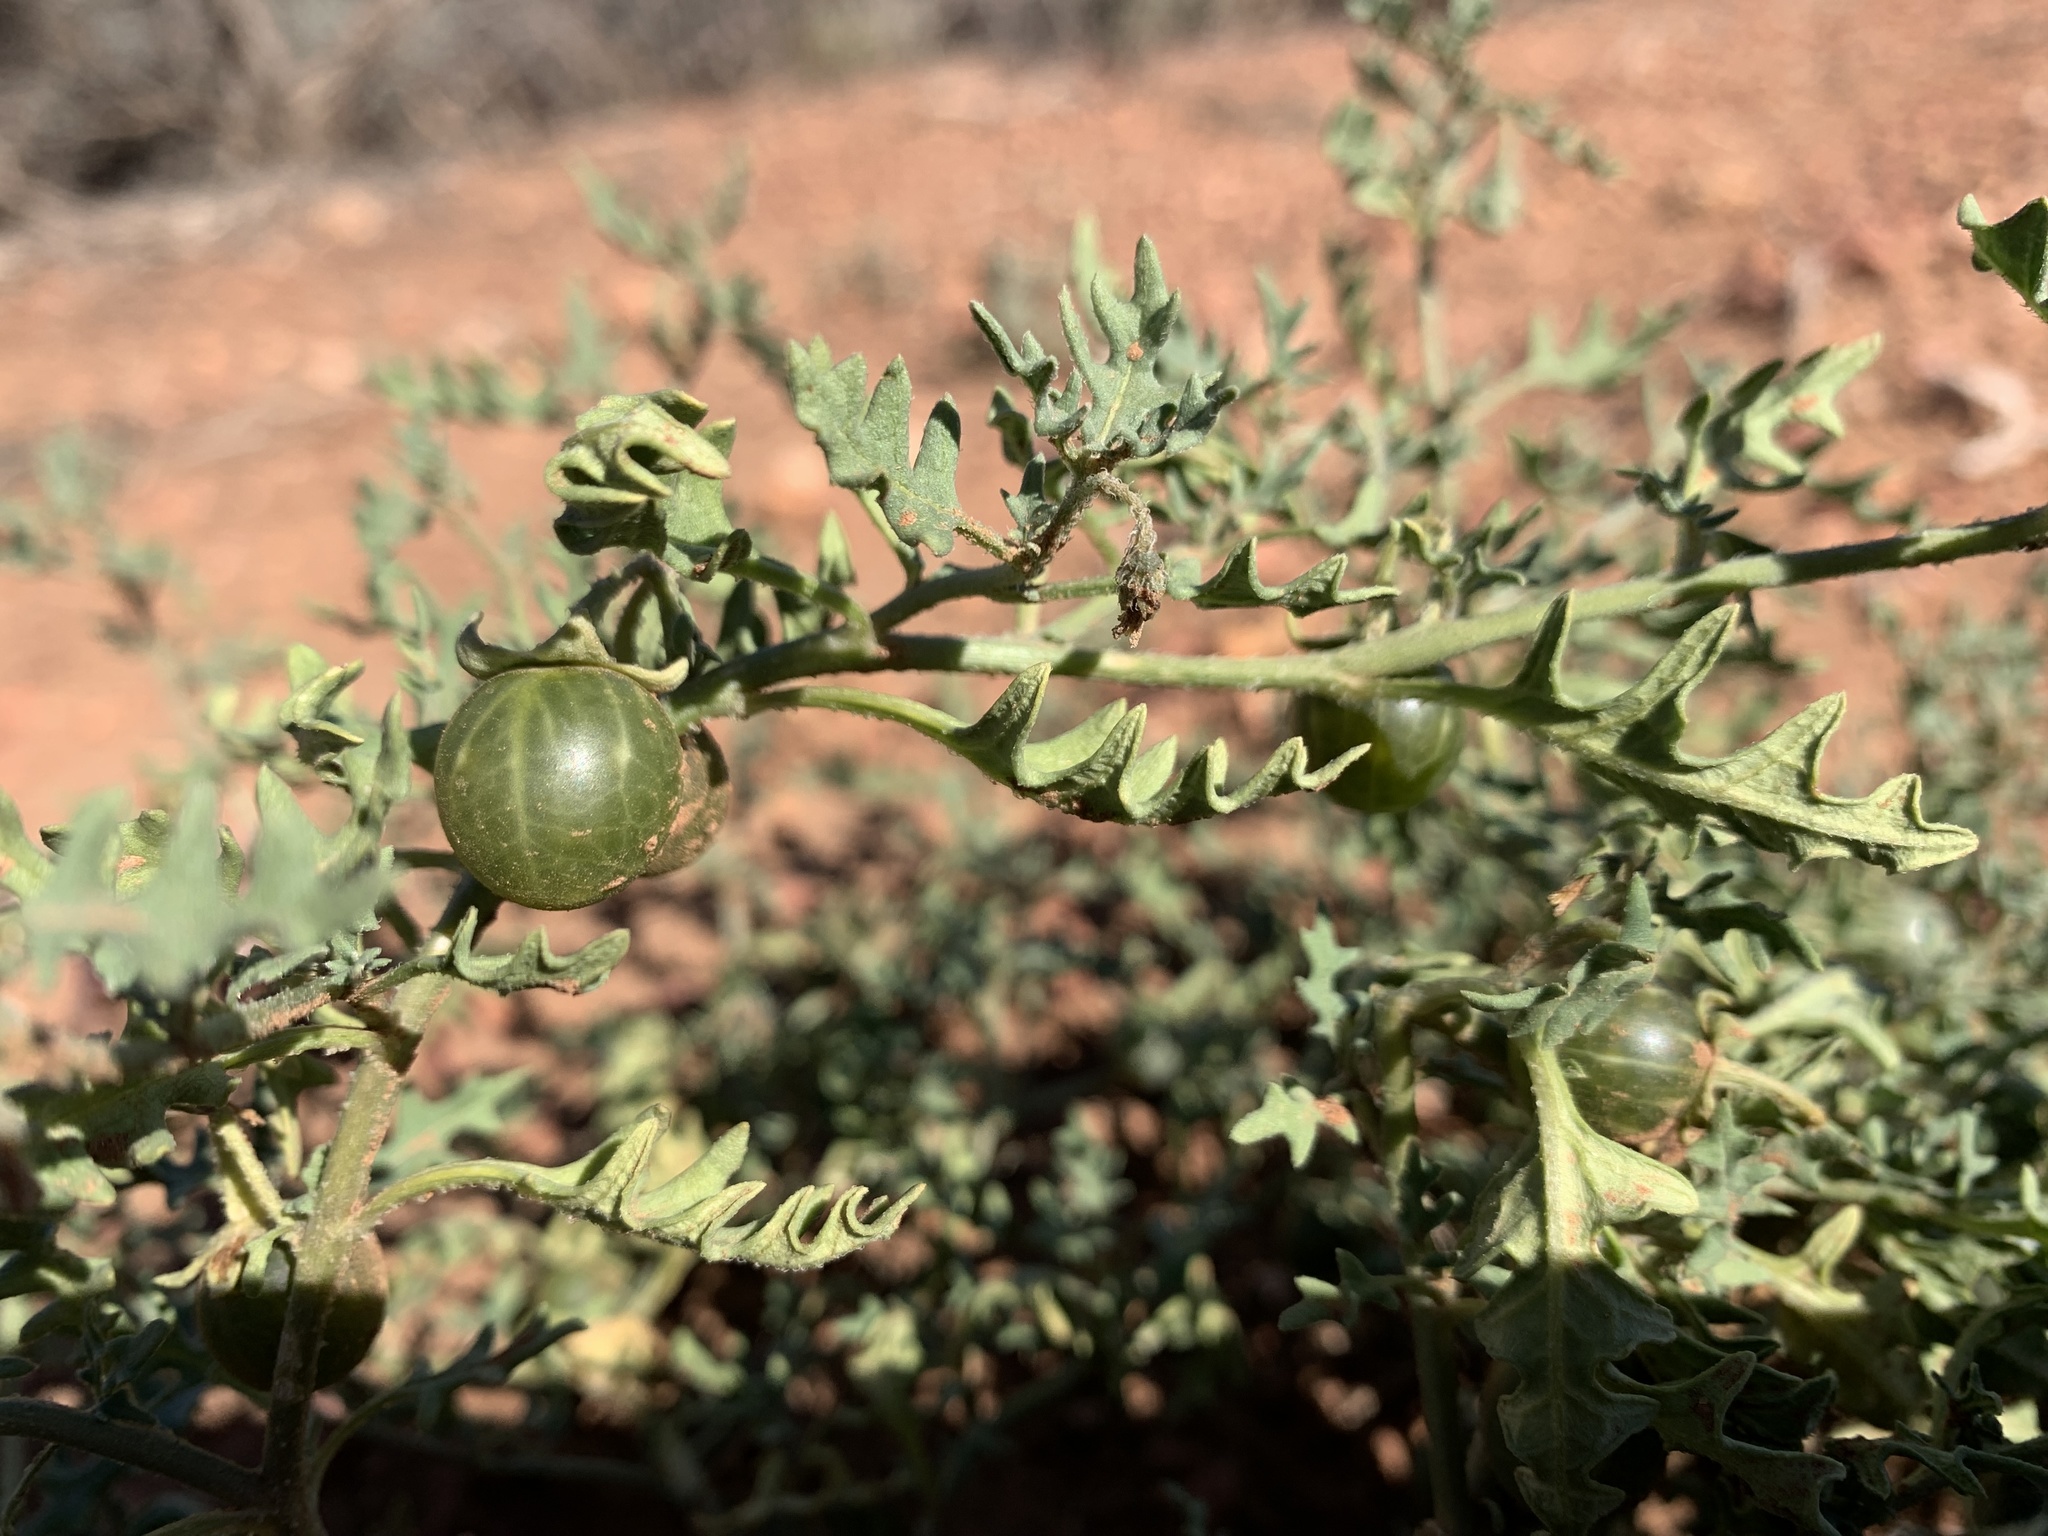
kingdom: Plantae
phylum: Tracheophyta
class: Magnoliopsida
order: Solanales
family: Solanaceae
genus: Solanum
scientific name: Solanum triflorum
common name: Small nightshade
